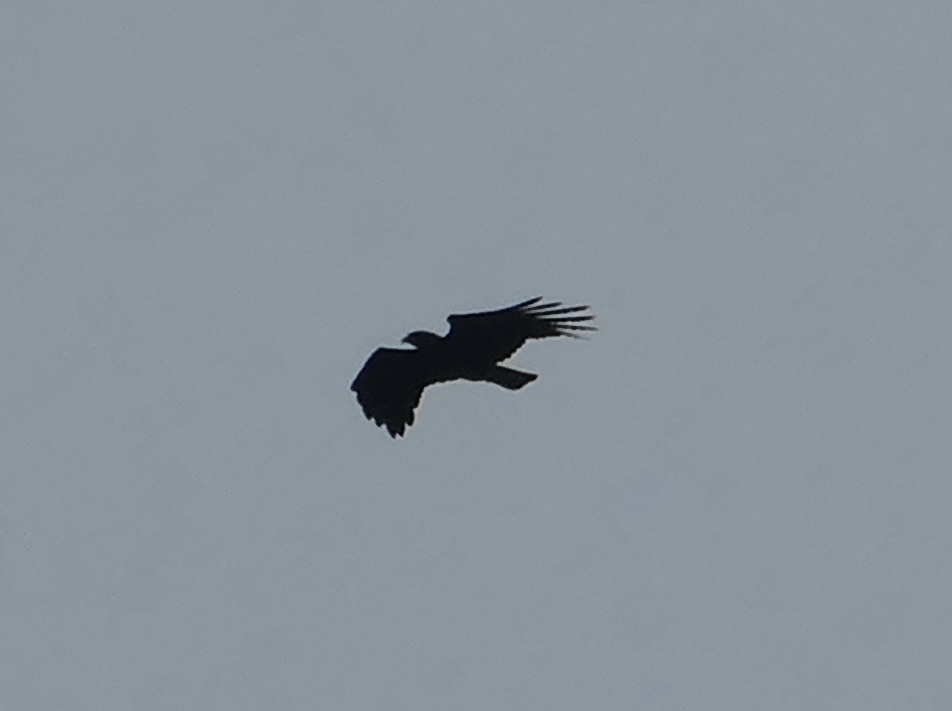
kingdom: Animalia
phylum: Chordata
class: Aves
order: Accipitriformes
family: Accipitridae
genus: Ictinaetus
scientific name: Ictinaetus malayensis
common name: Black eagle
